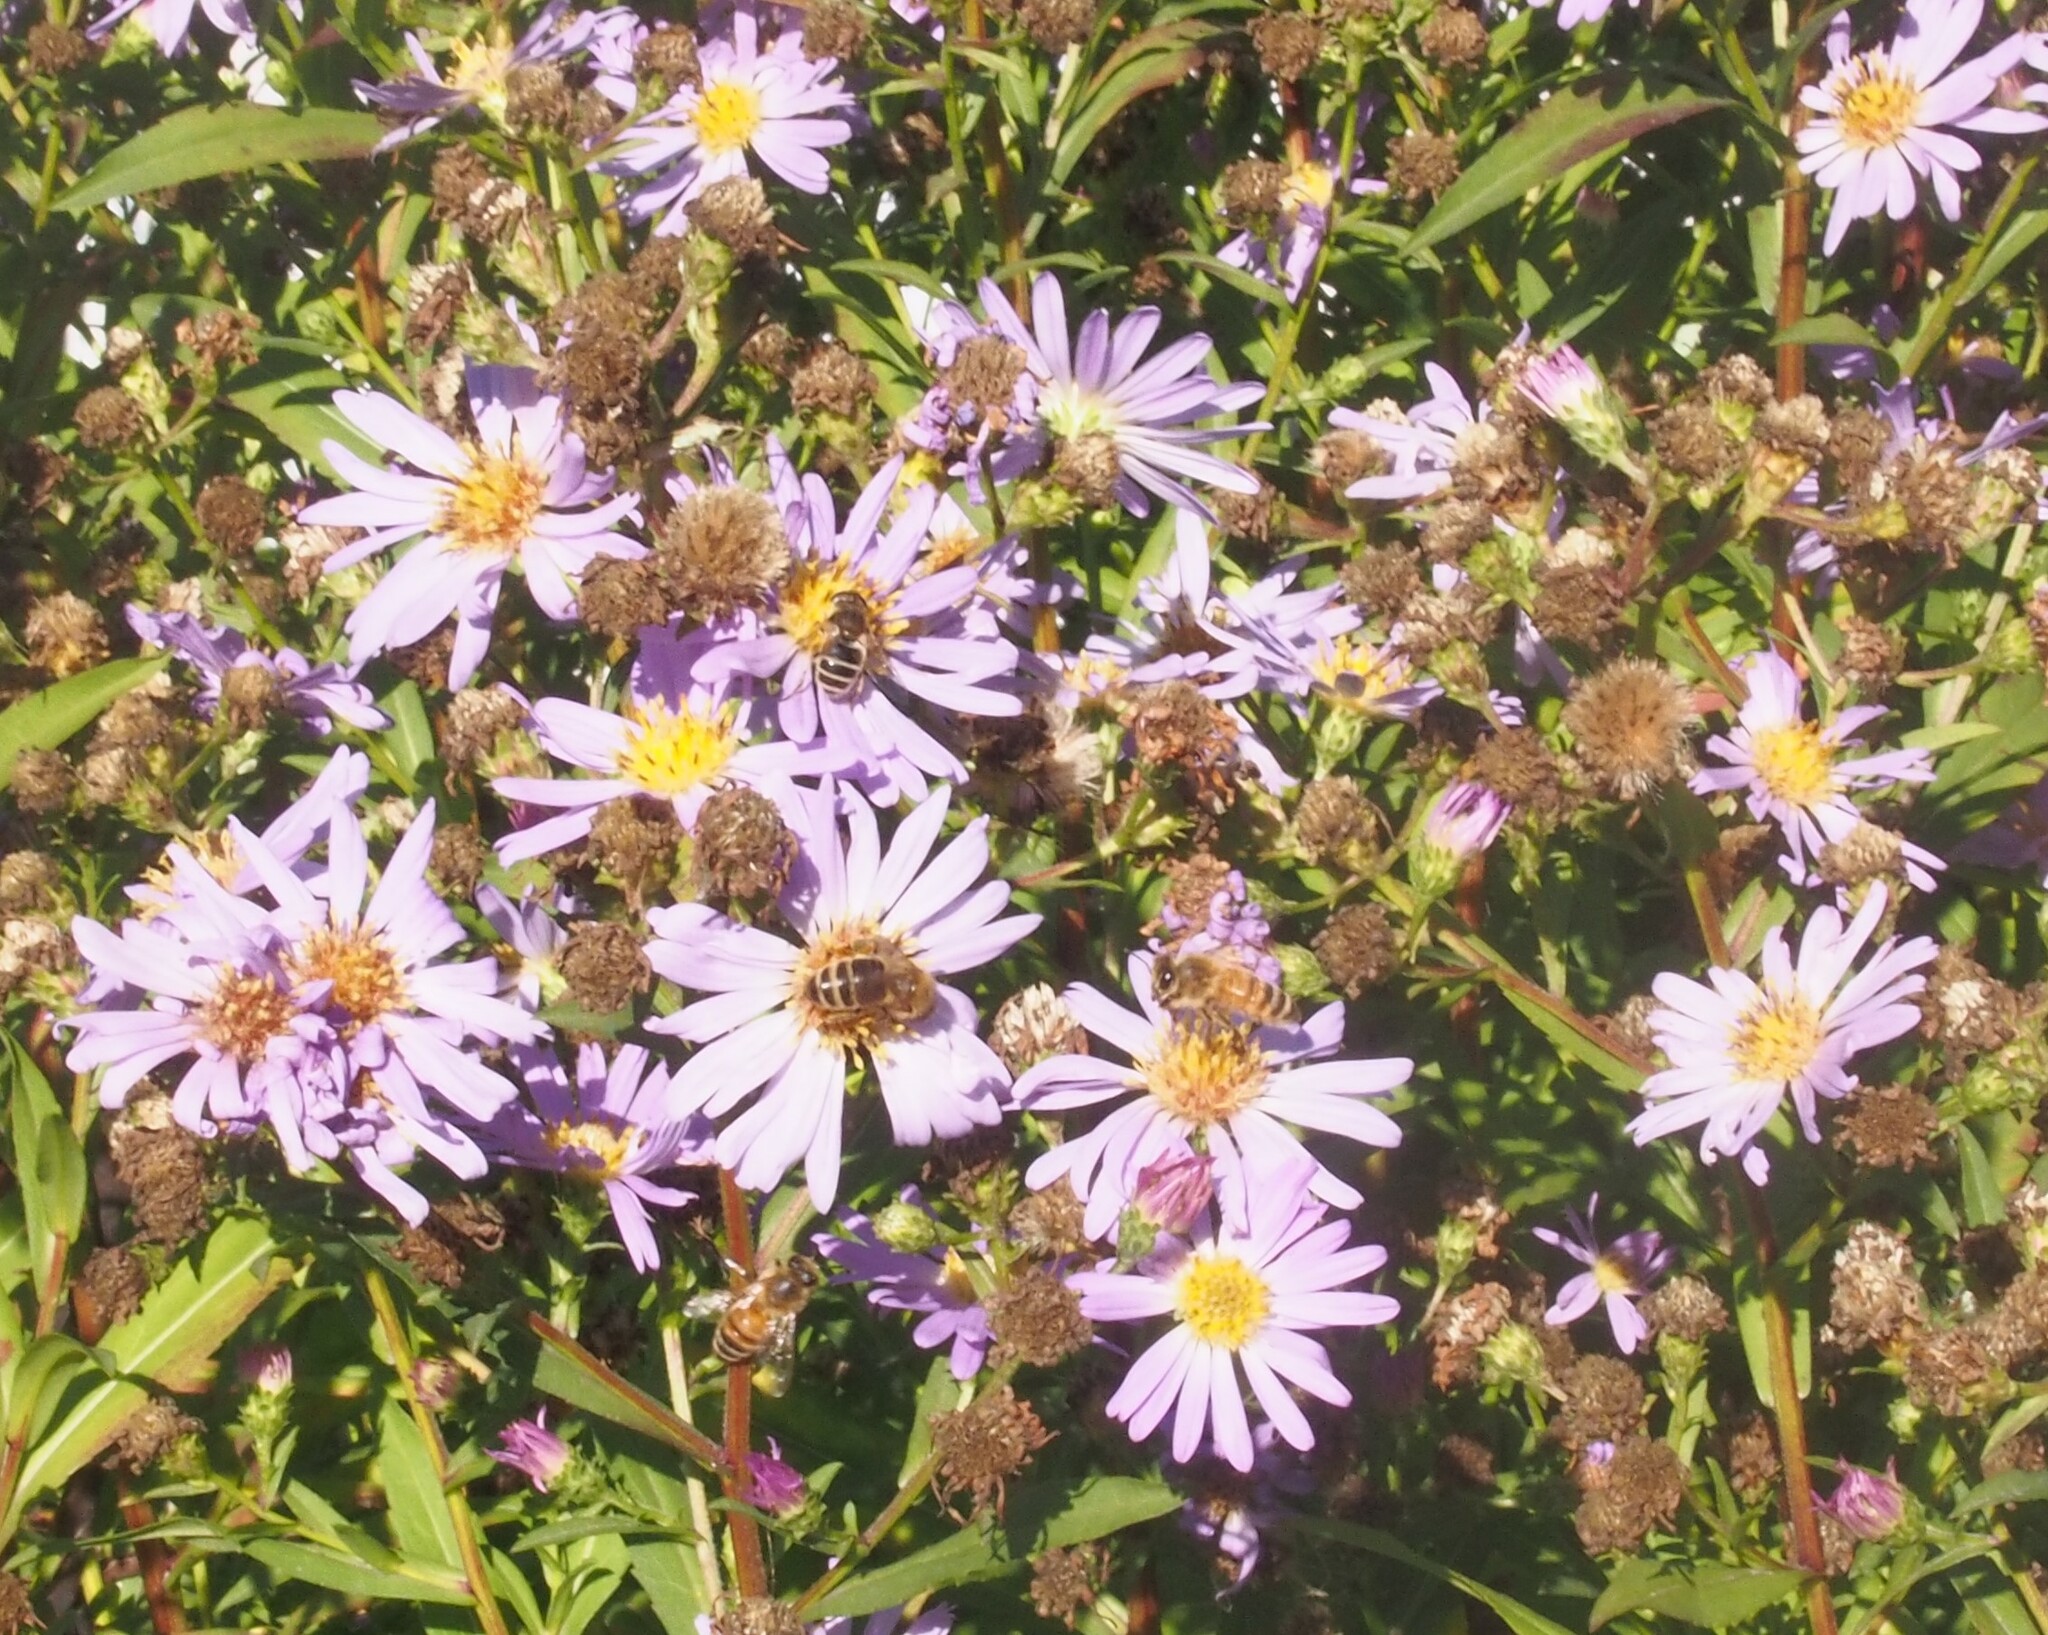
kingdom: Animalia
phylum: Arthropoda
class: Insecta
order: Hymenoptera
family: Apidae
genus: Apis
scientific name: Apis mellifera
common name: Honey bee
